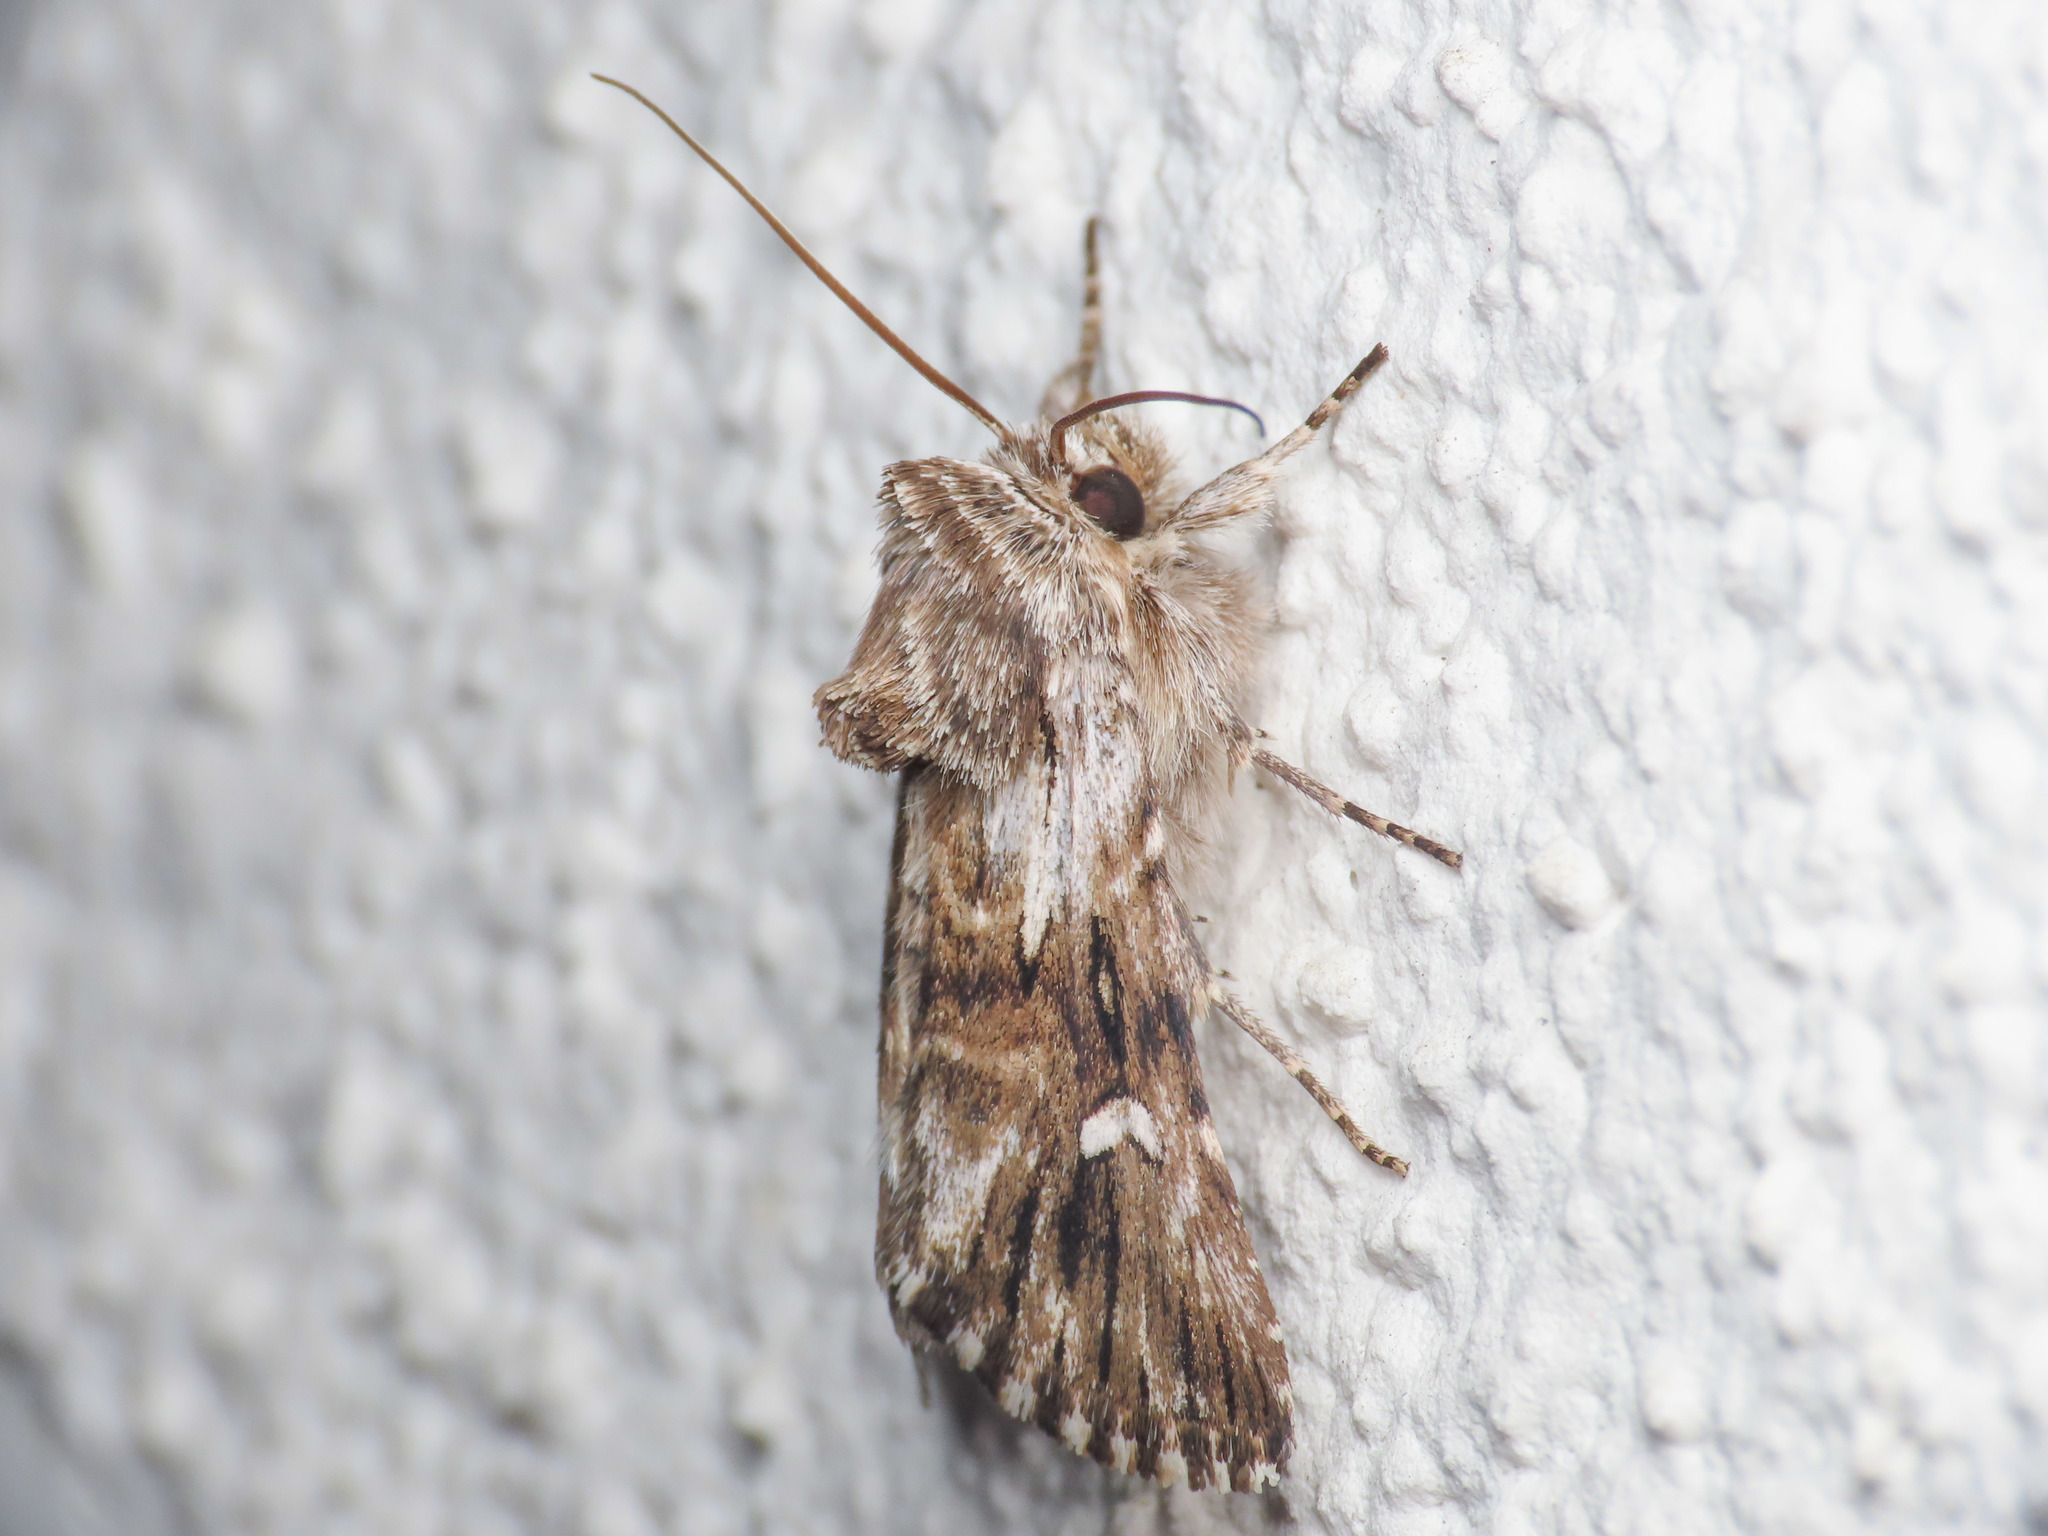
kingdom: Animalia
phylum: Arthropoda
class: Insecta
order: Lepidoptera
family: Noctuidae
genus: Calophasia
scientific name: Calophasia lunula
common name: Toadflax brocade
